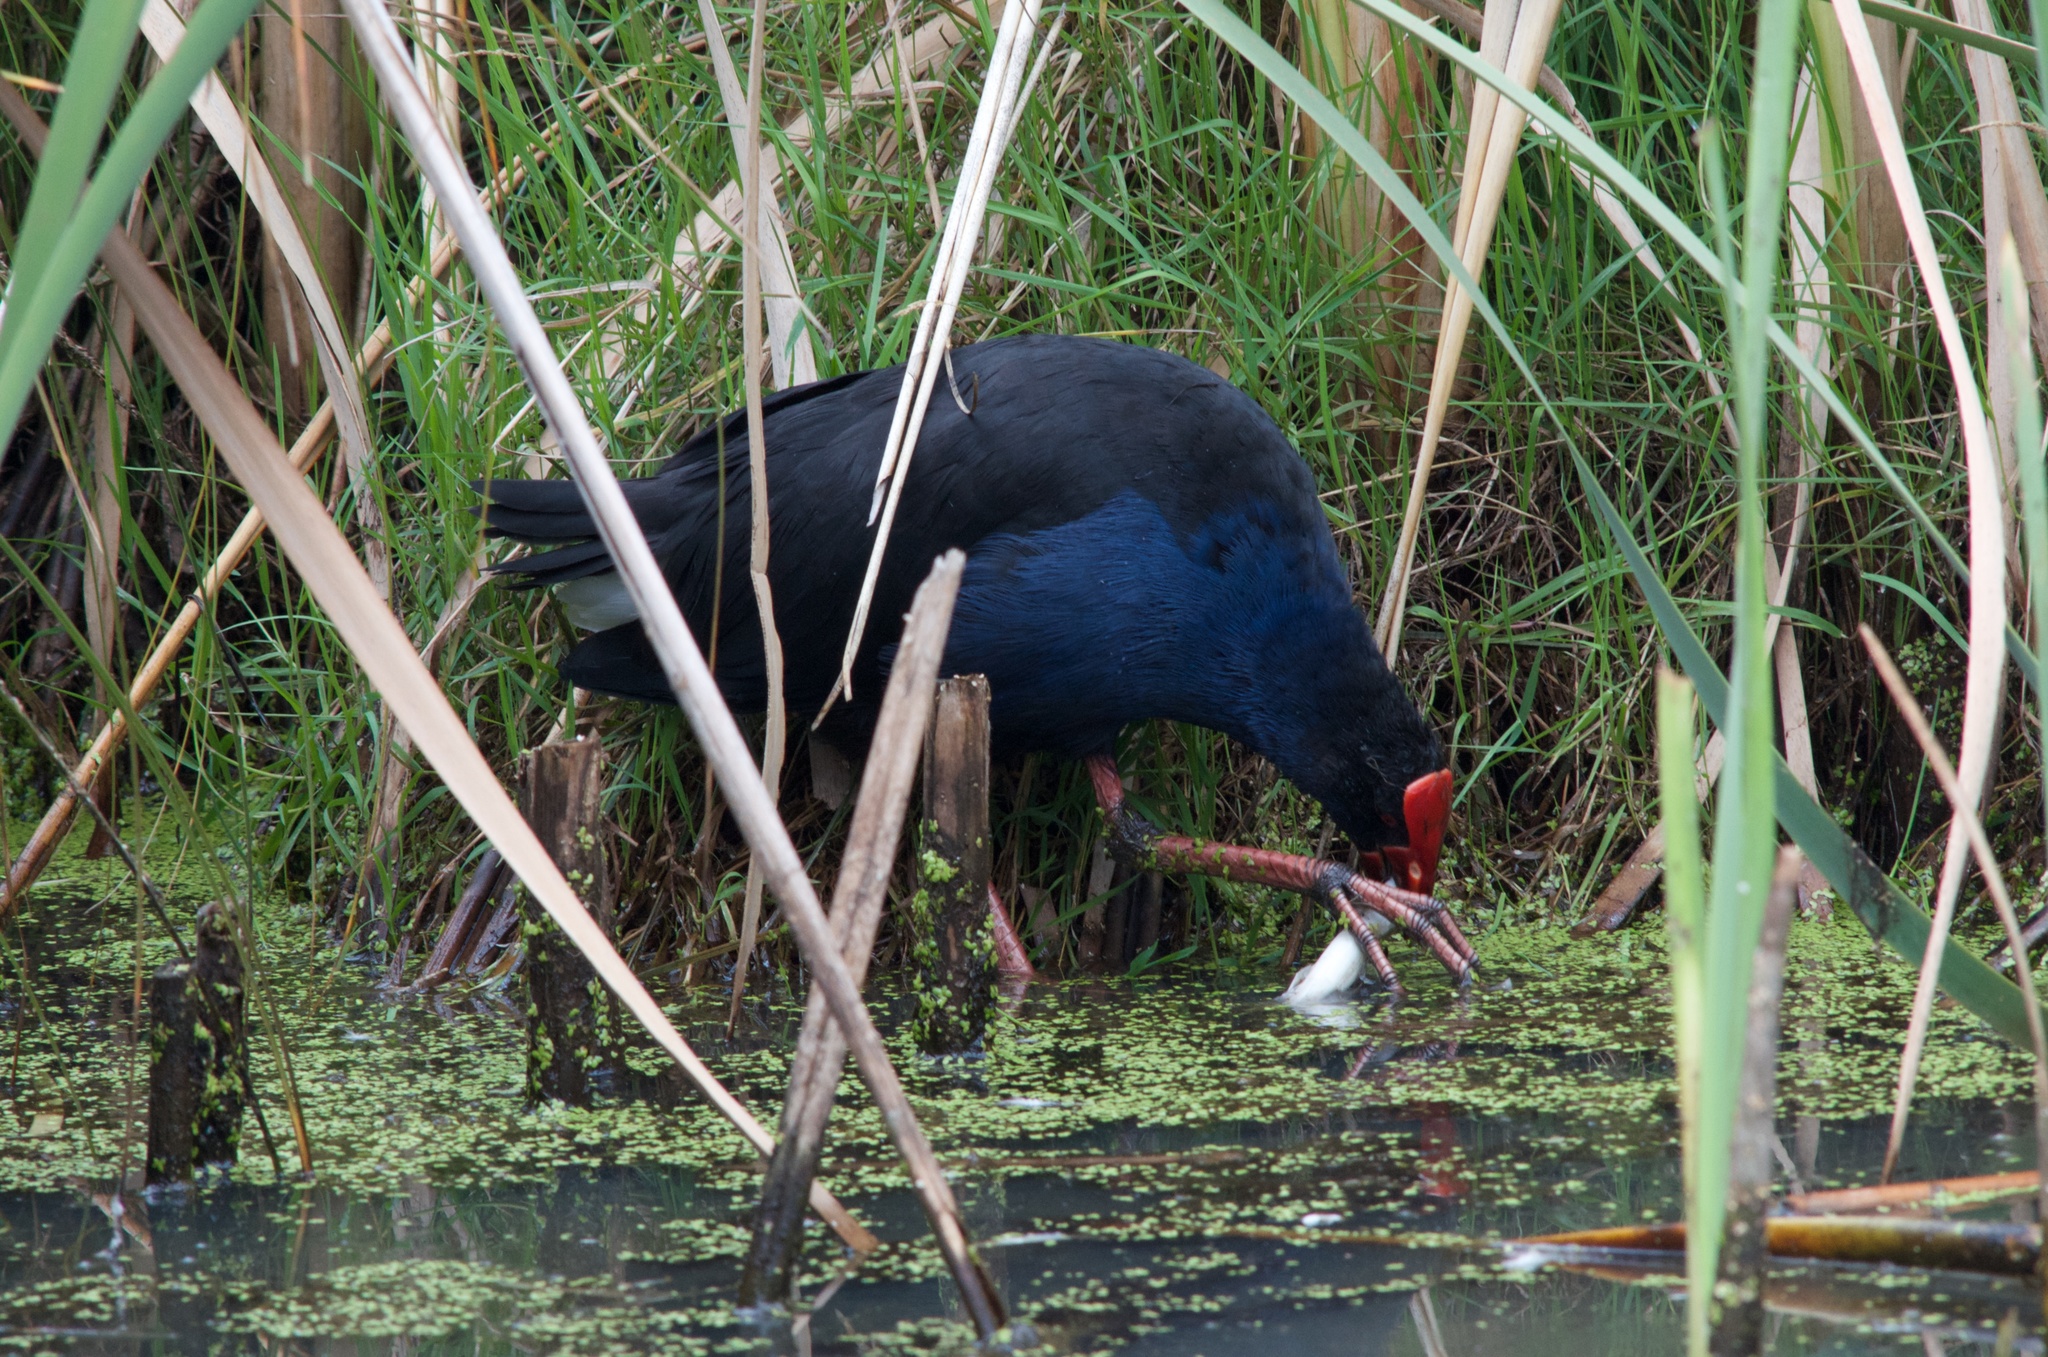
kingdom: Animalia
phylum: Chordata
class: Aves
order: Gruiformes
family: Rallidae
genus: Porphyrio
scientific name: Porphyrio melanotus
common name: Australasian swamphen
